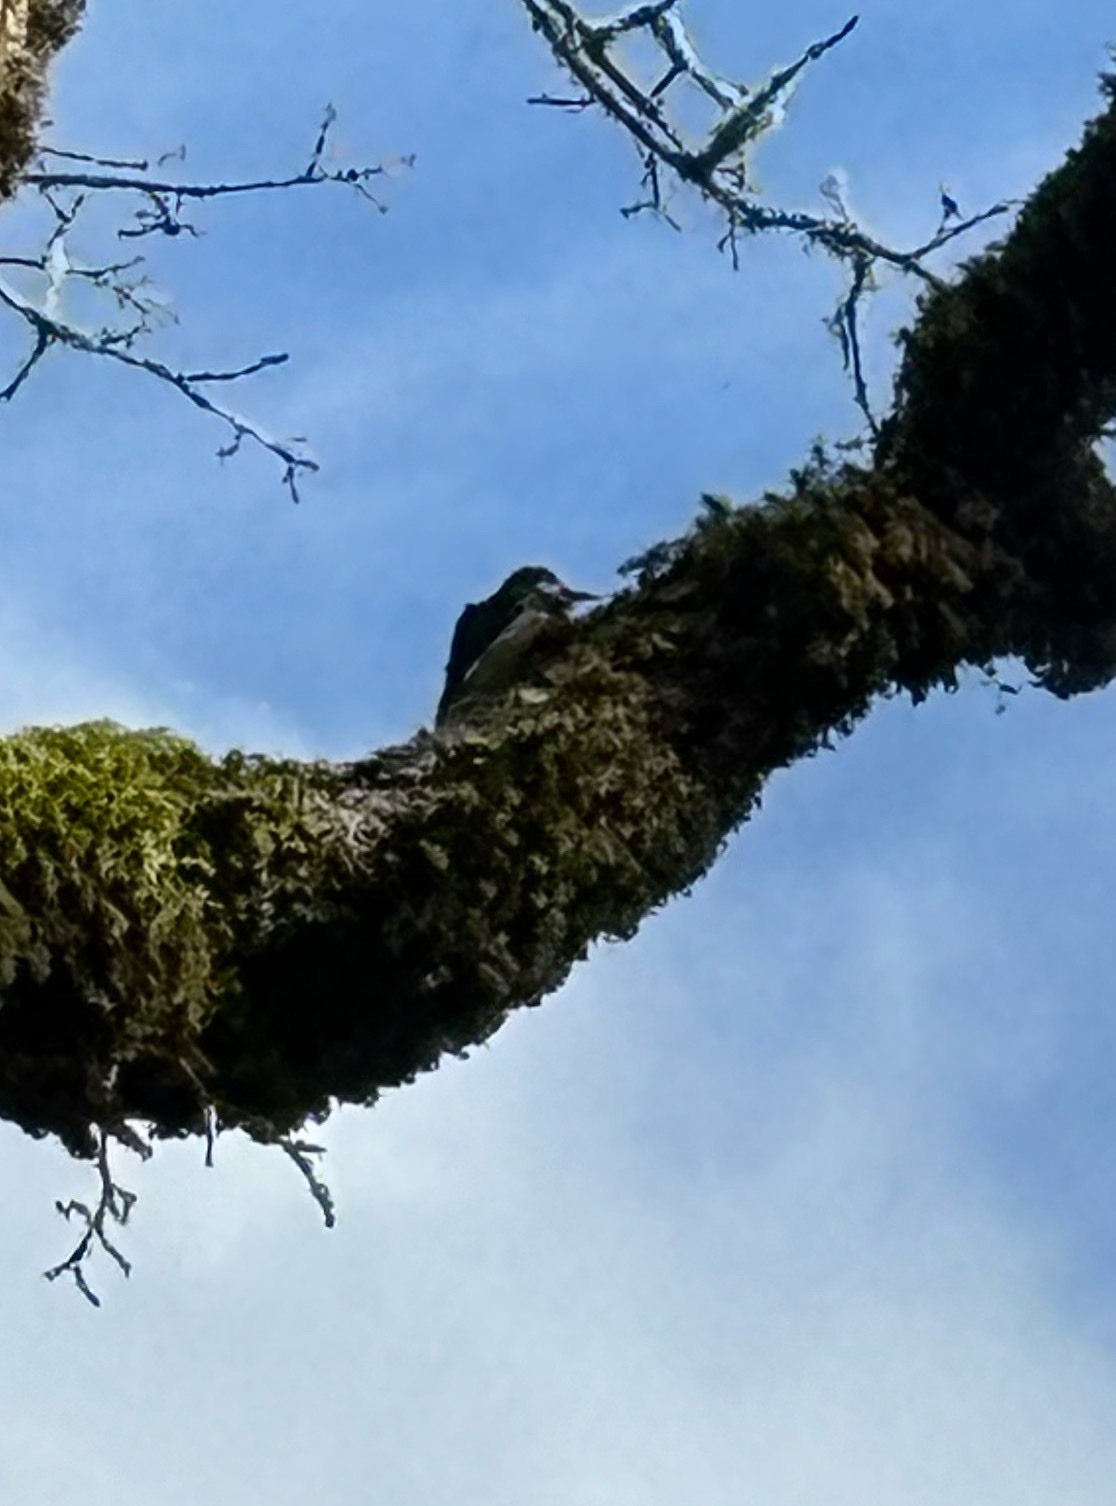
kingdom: Animalia
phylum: Chordata
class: Aves
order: Piciformes
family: Picidae
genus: Melanerpes
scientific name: Melanerpes formicivorus
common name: Acorn woodpecker
